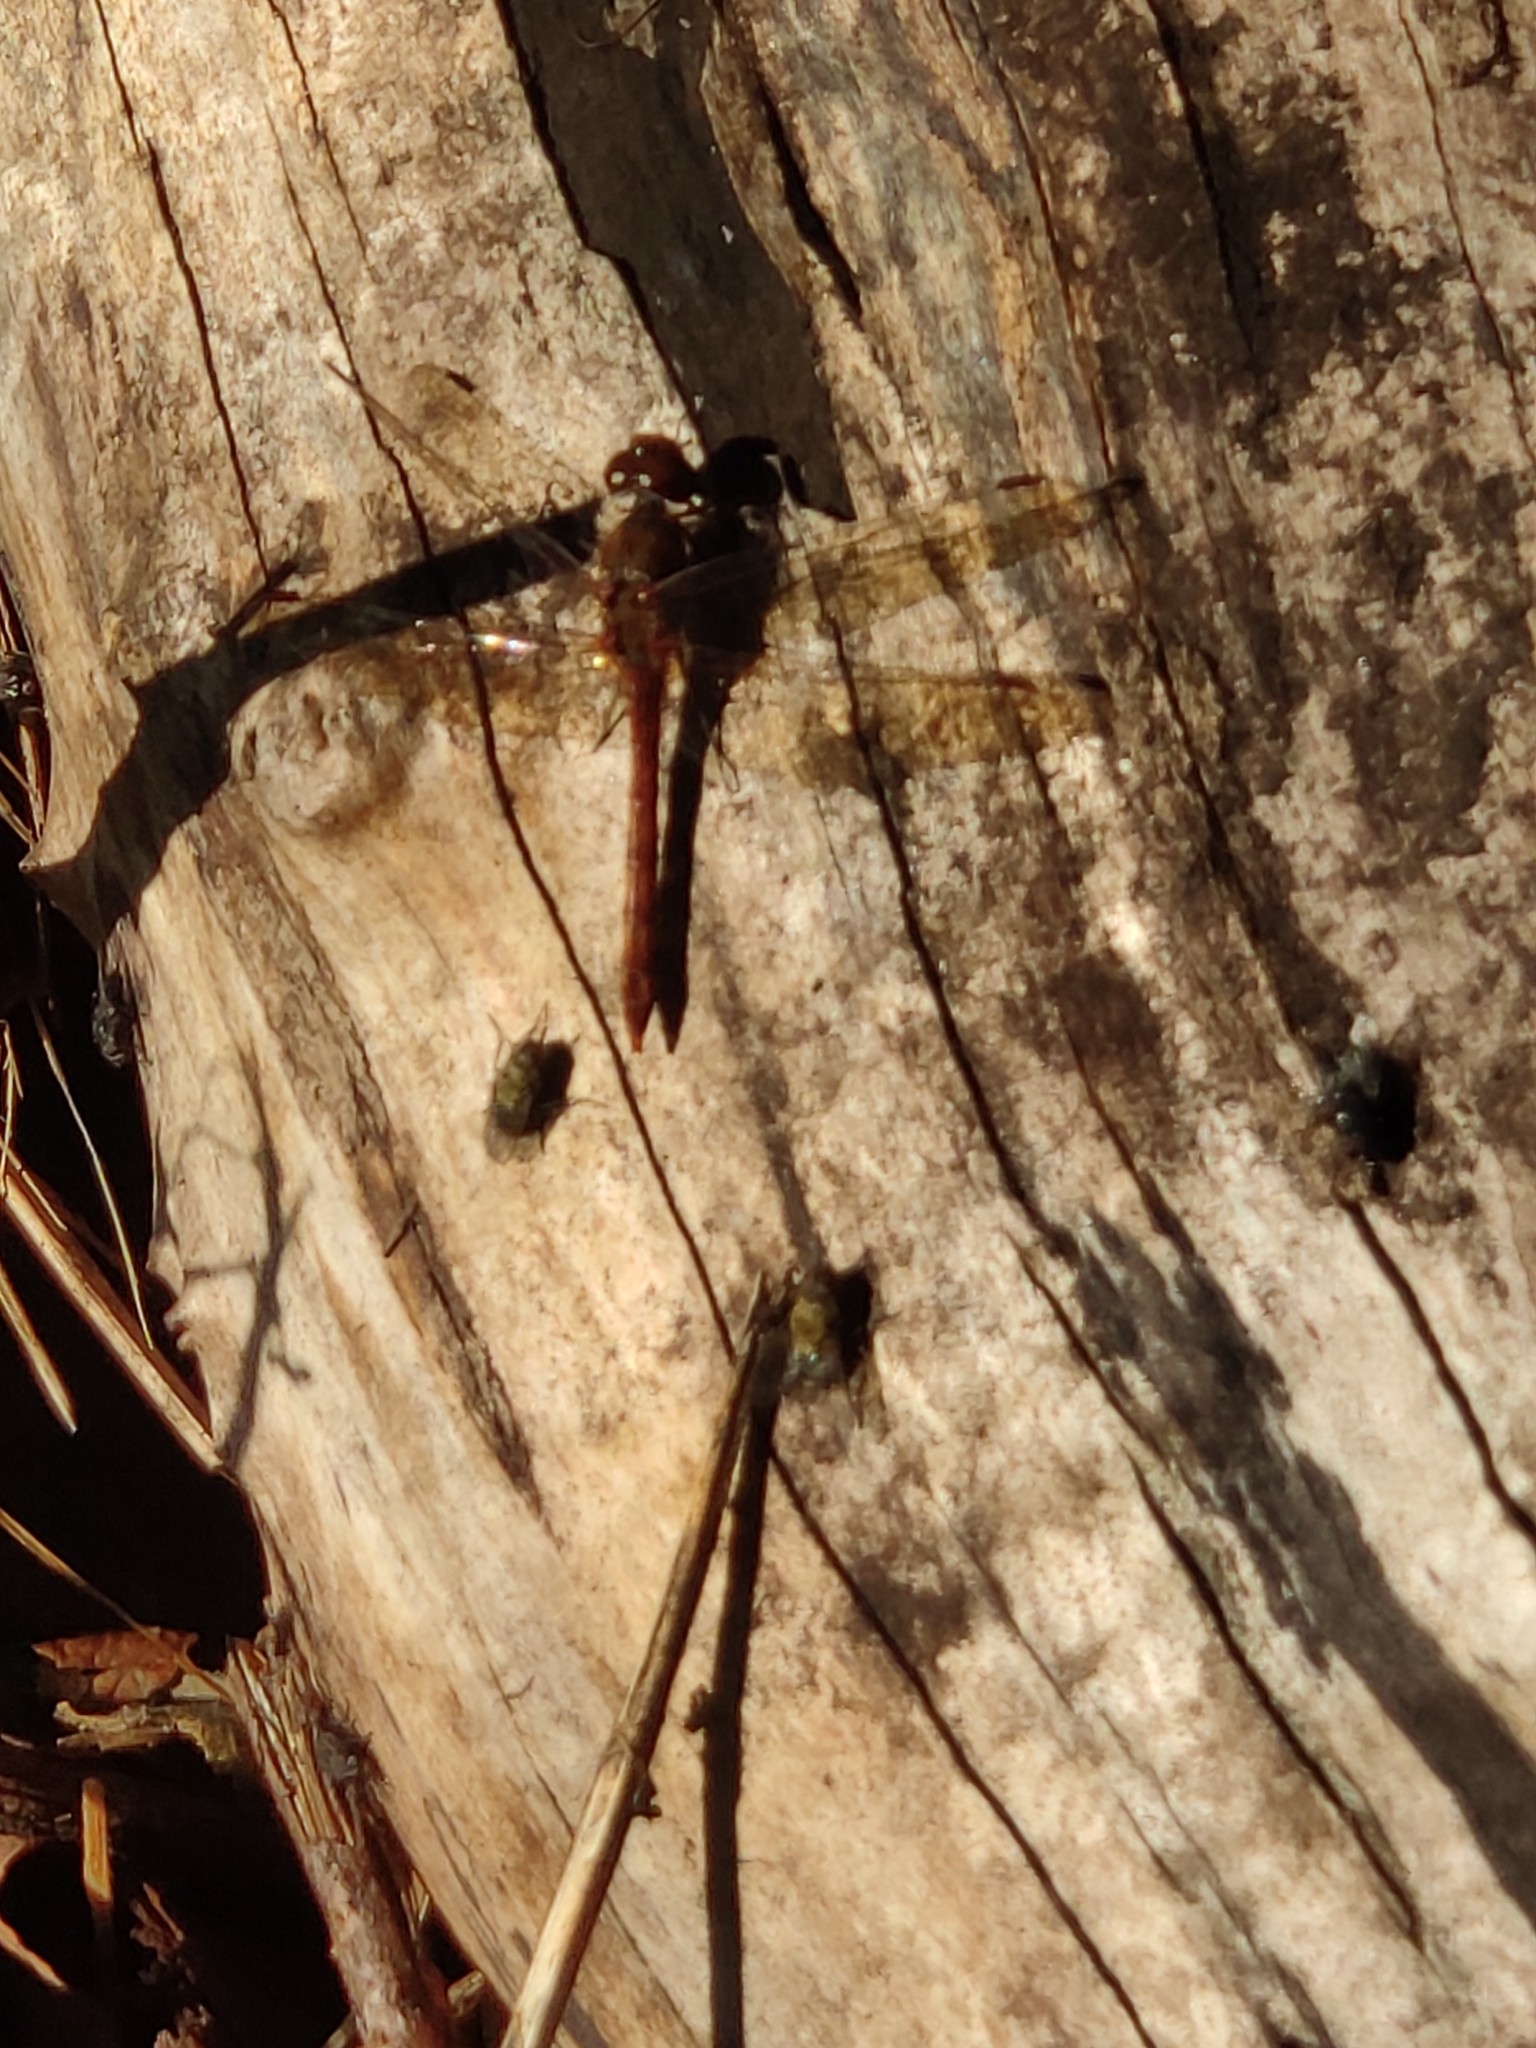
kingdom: Animalia
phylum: Arthropoda
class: Insecta
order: Odonata
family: Libellulidae
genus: Sympetrum
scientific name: Sympetrum striolatum
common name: Common darter
